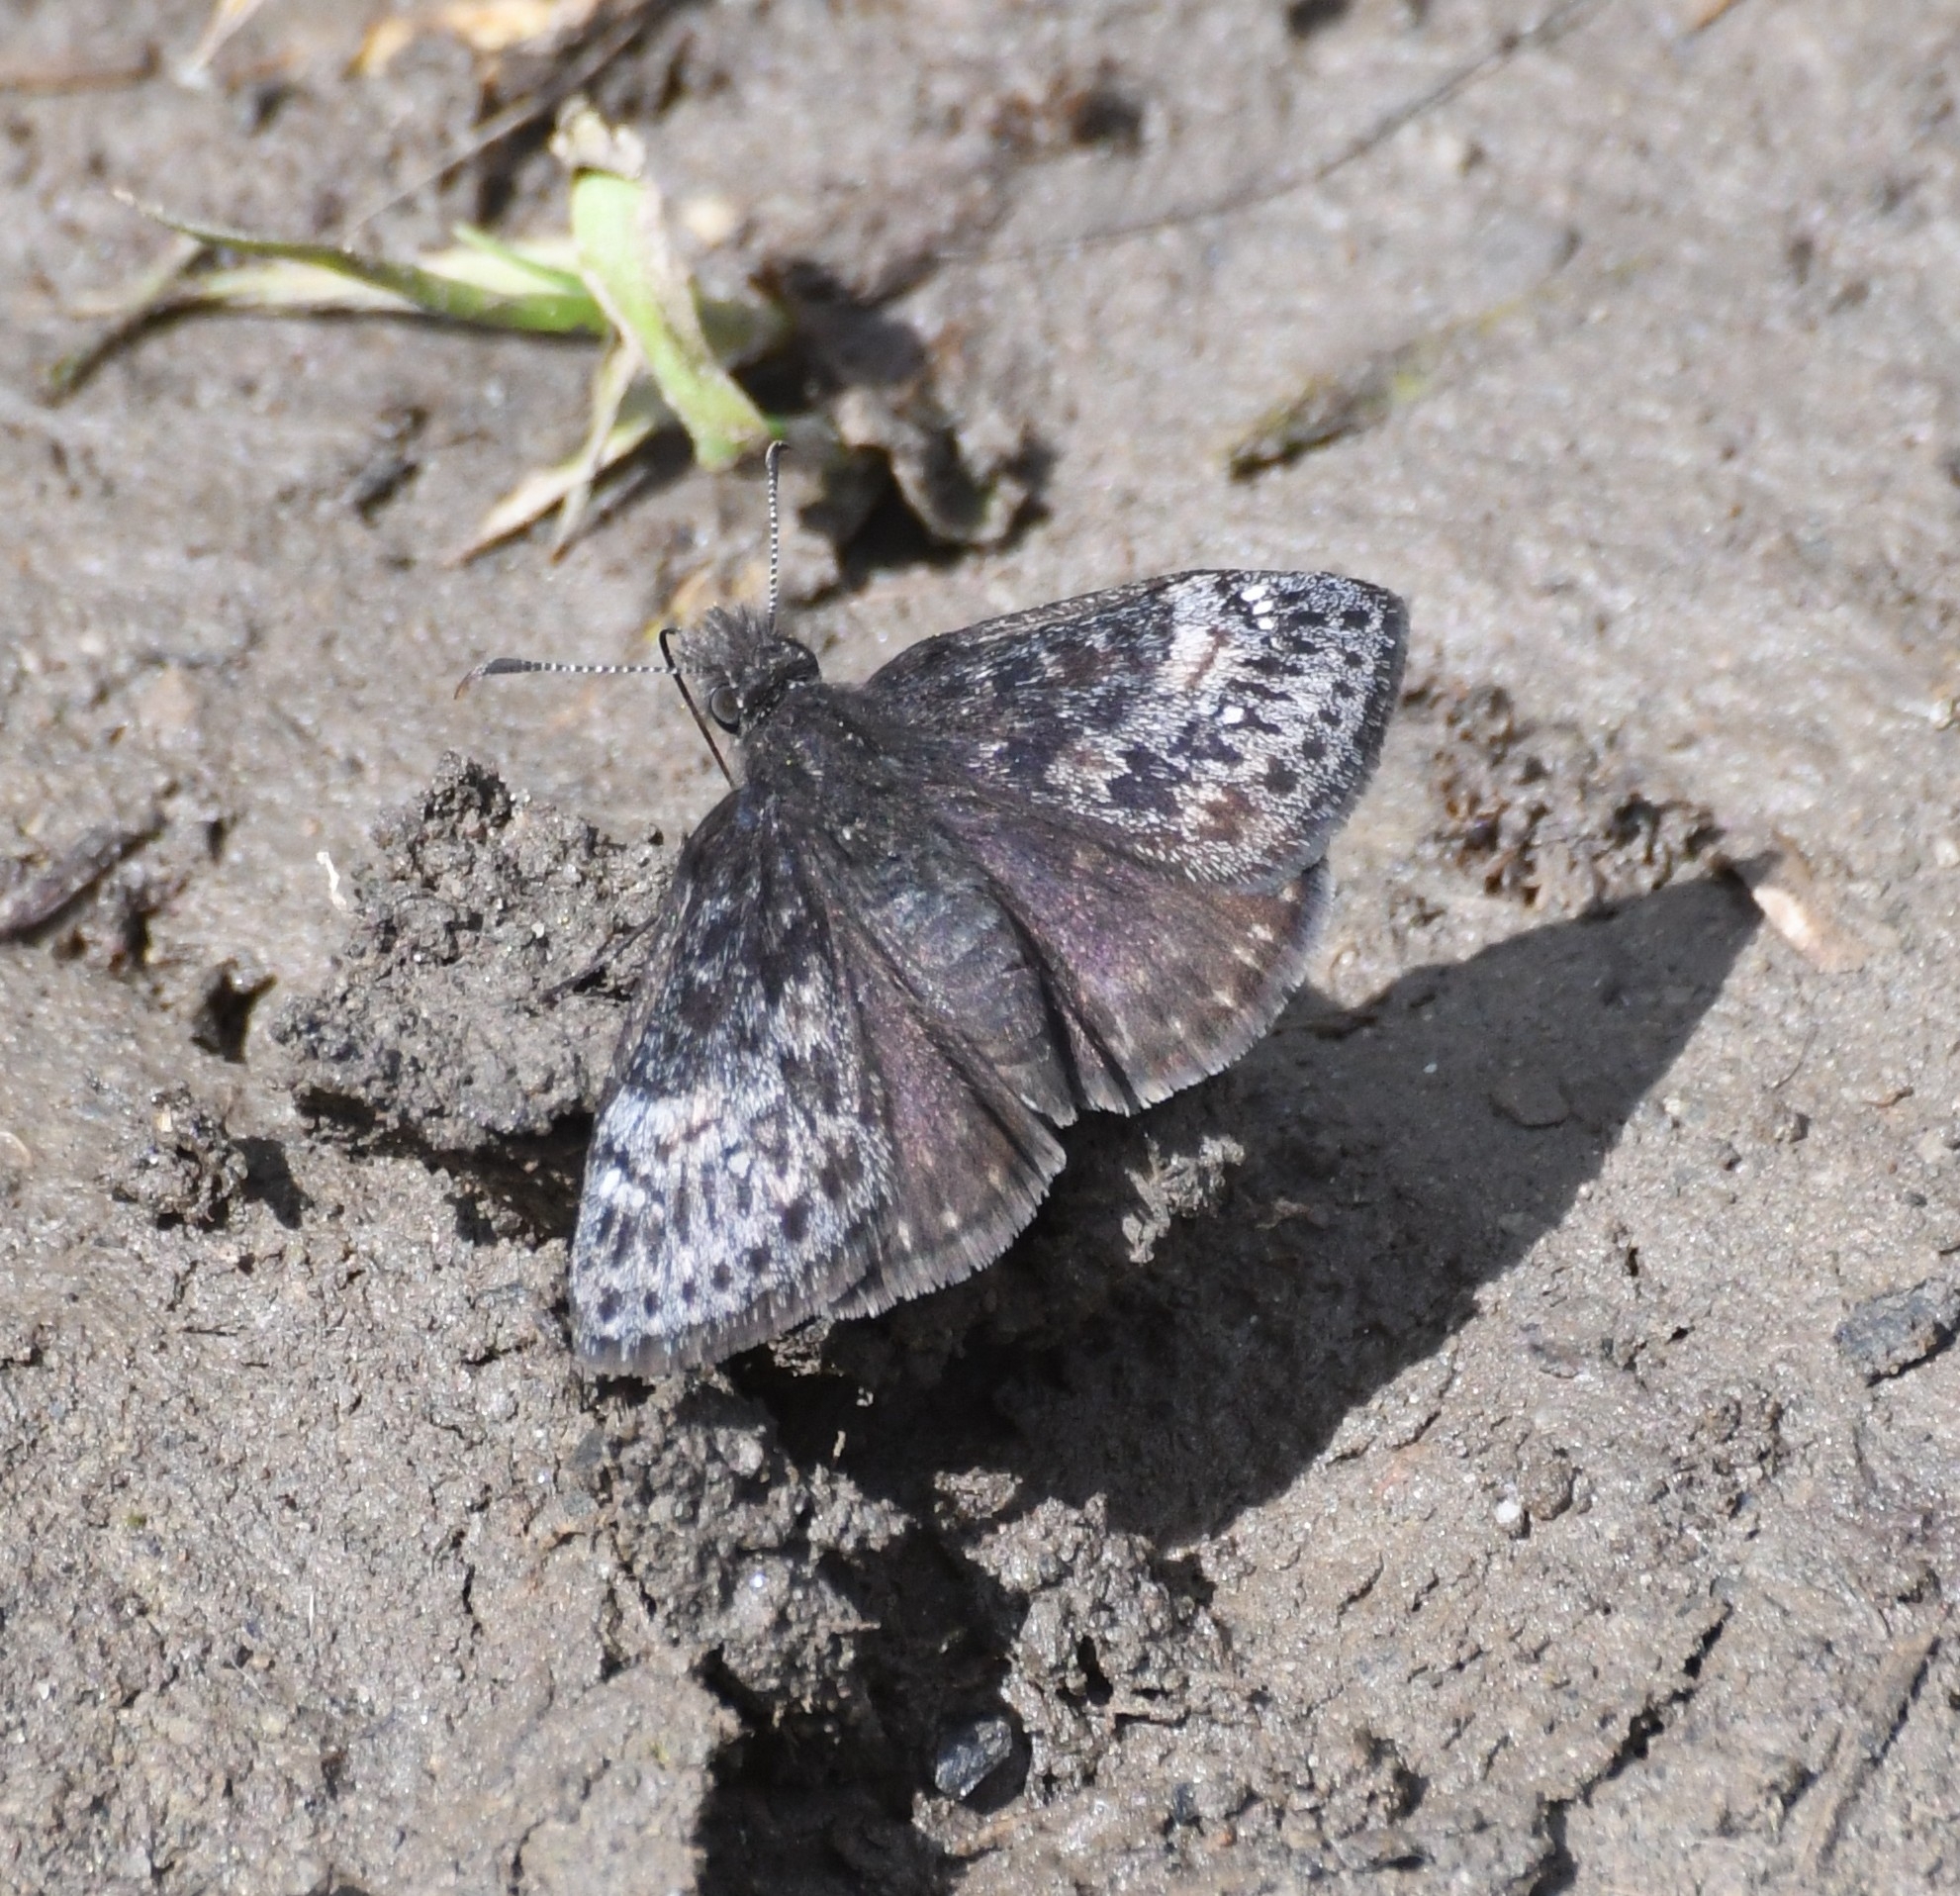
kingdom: Animalia
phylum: Arthropoda
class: Insecta
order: Lepidoptera
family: Hesperiidae
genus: Erynnis
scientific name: Erynnis persius
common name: Persius duskywing
